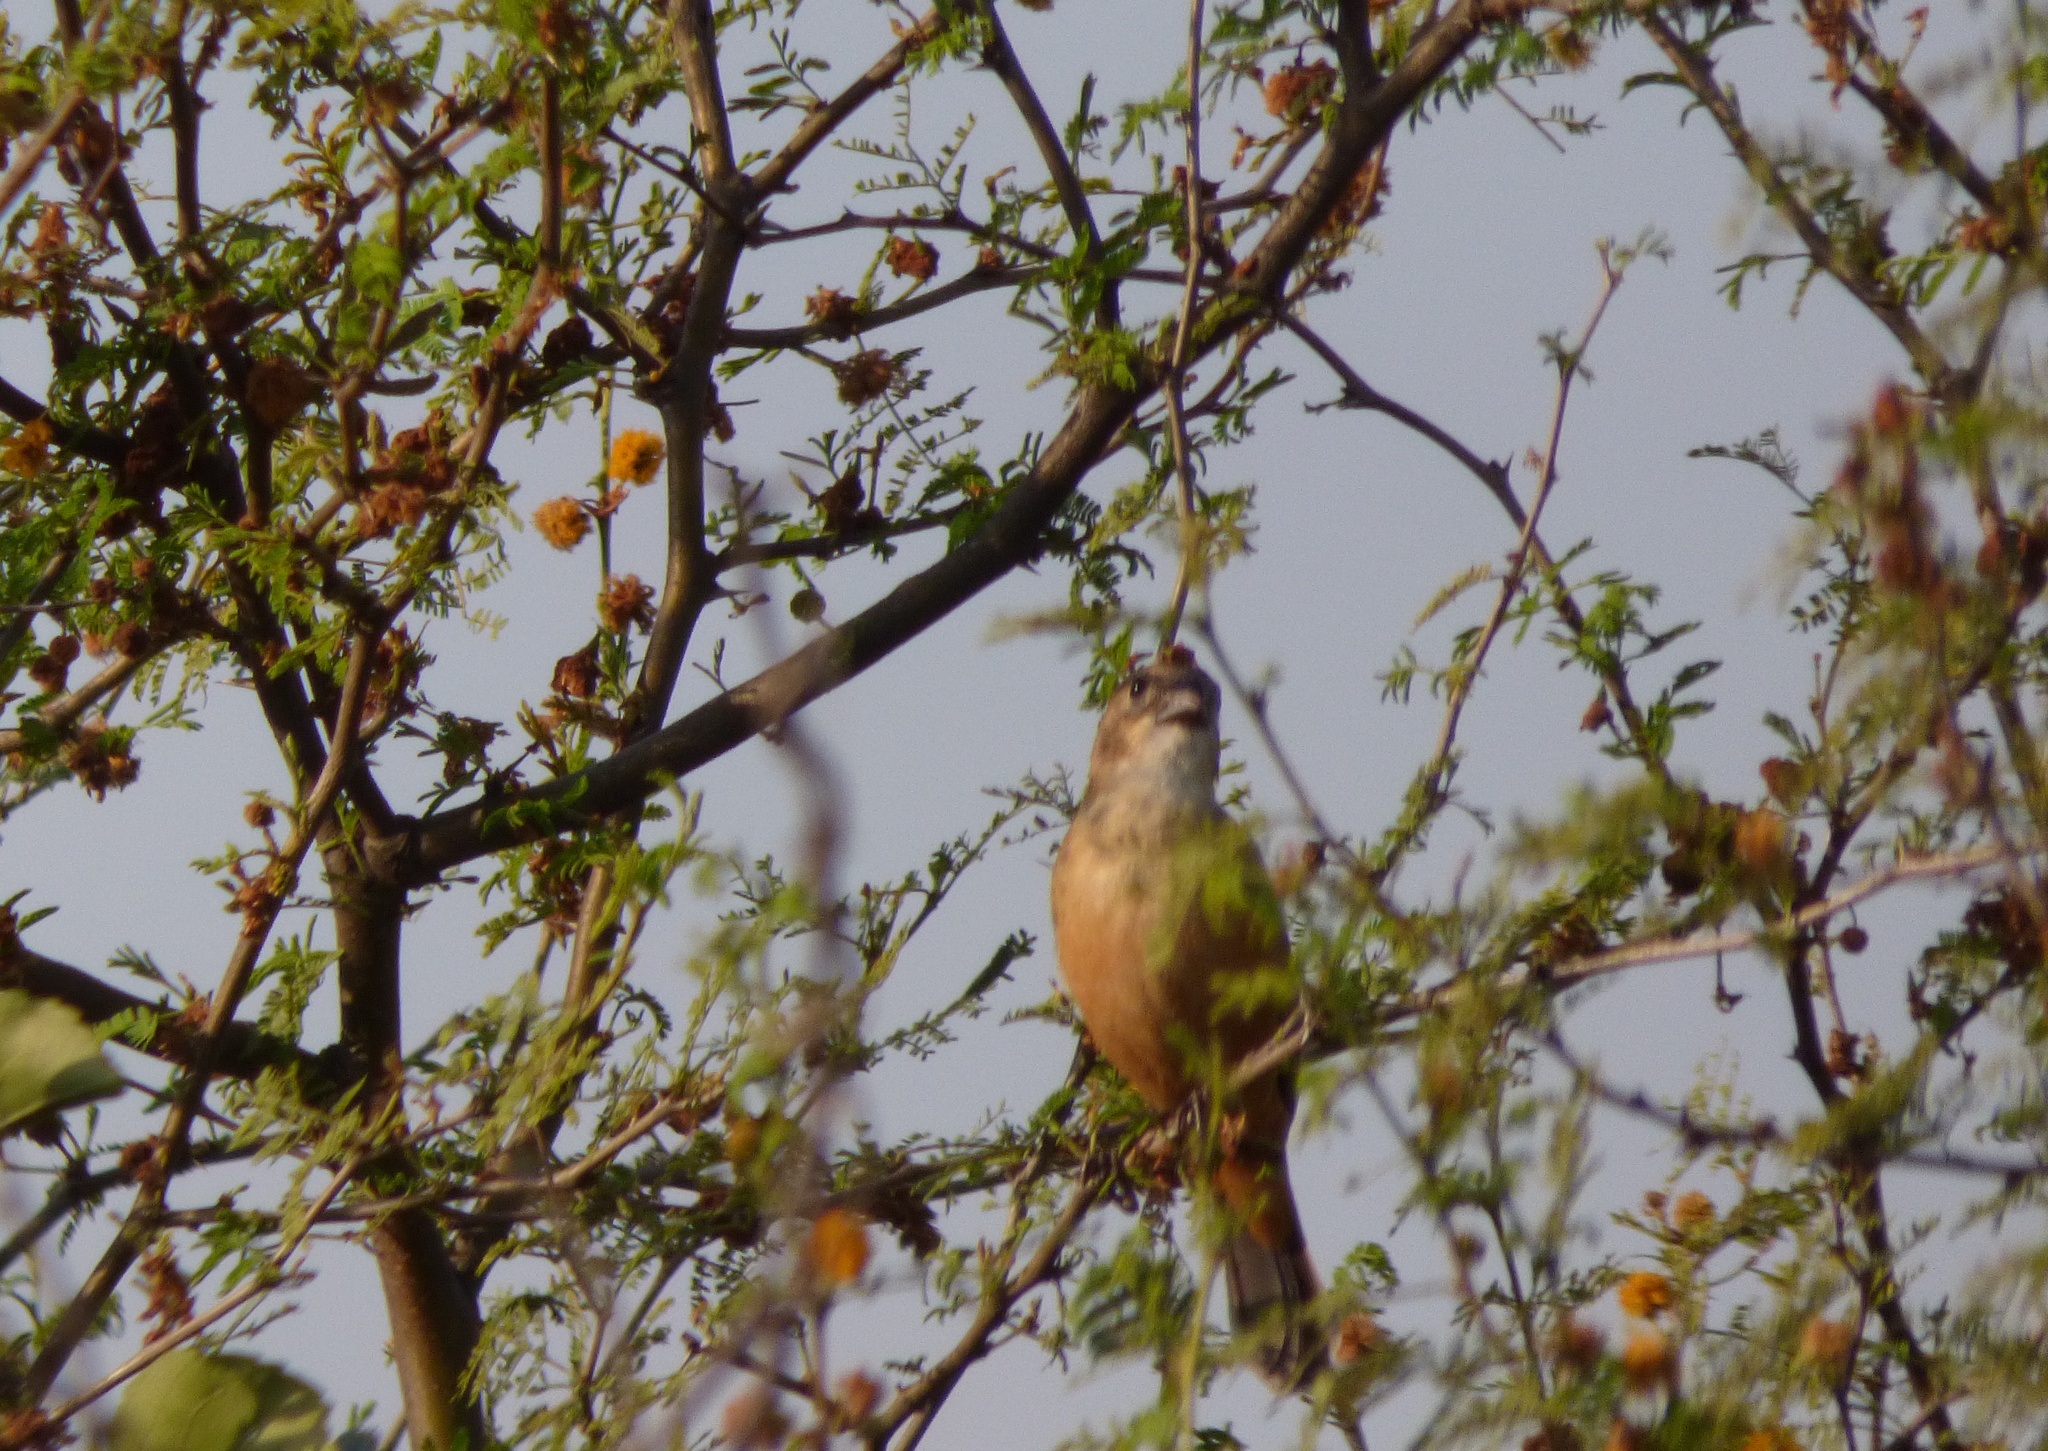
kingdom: Animalia
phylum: Chordata
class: Aves
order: Passeriformes
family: Thraupidae
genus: Sporophila
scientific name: Sporophila collaris
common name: Rusty-collared seedeater
